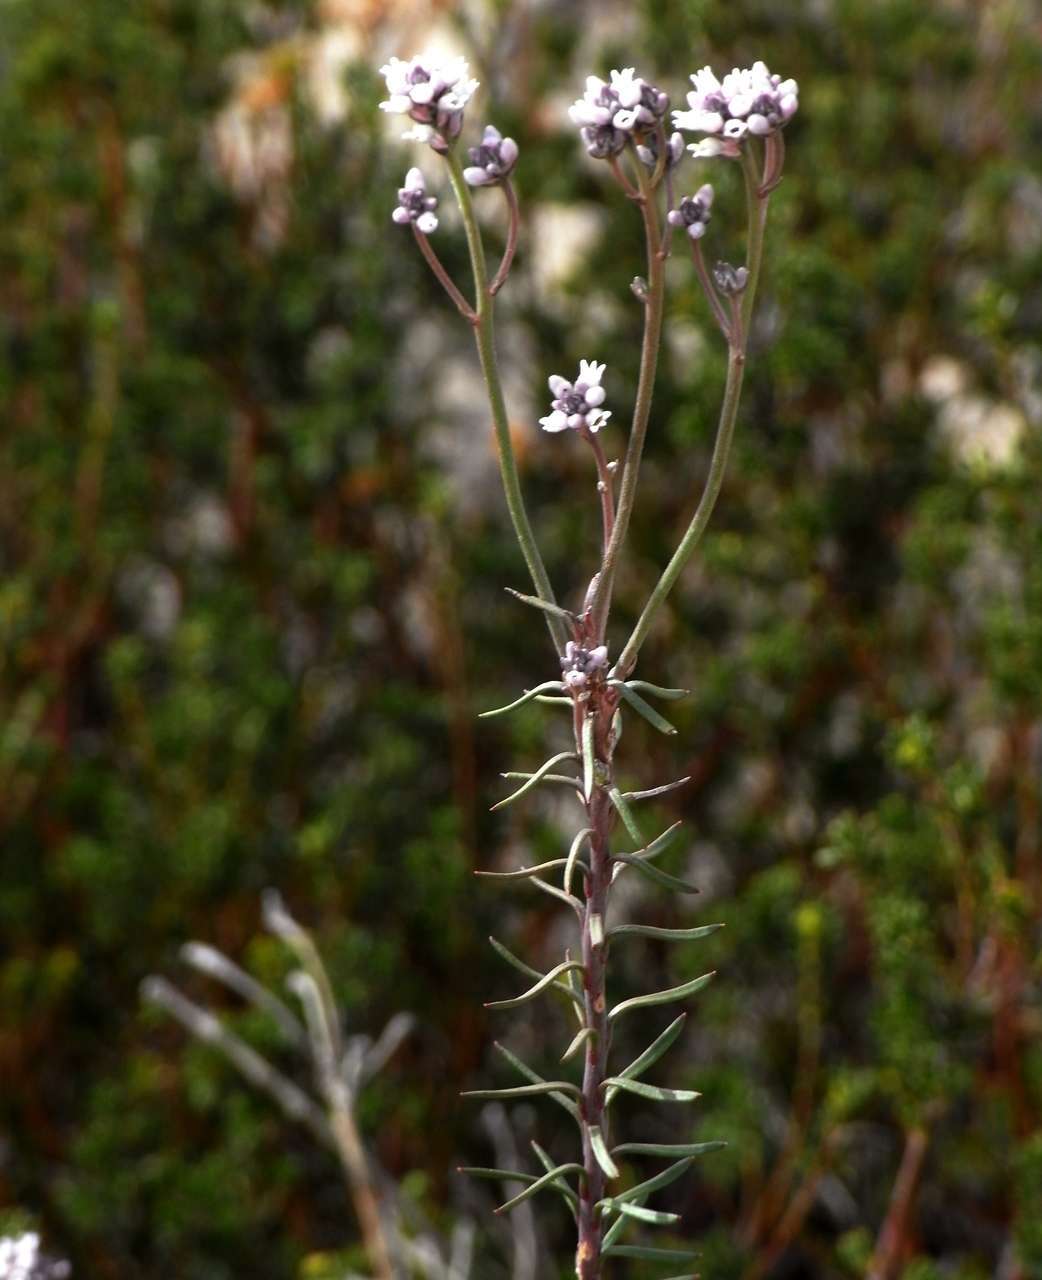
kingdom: Plantae
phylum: Tracheophyta
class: Magnoliopsida
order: Proteales
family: Proteaceae
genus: Conospermum
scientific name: Conospermum patens
